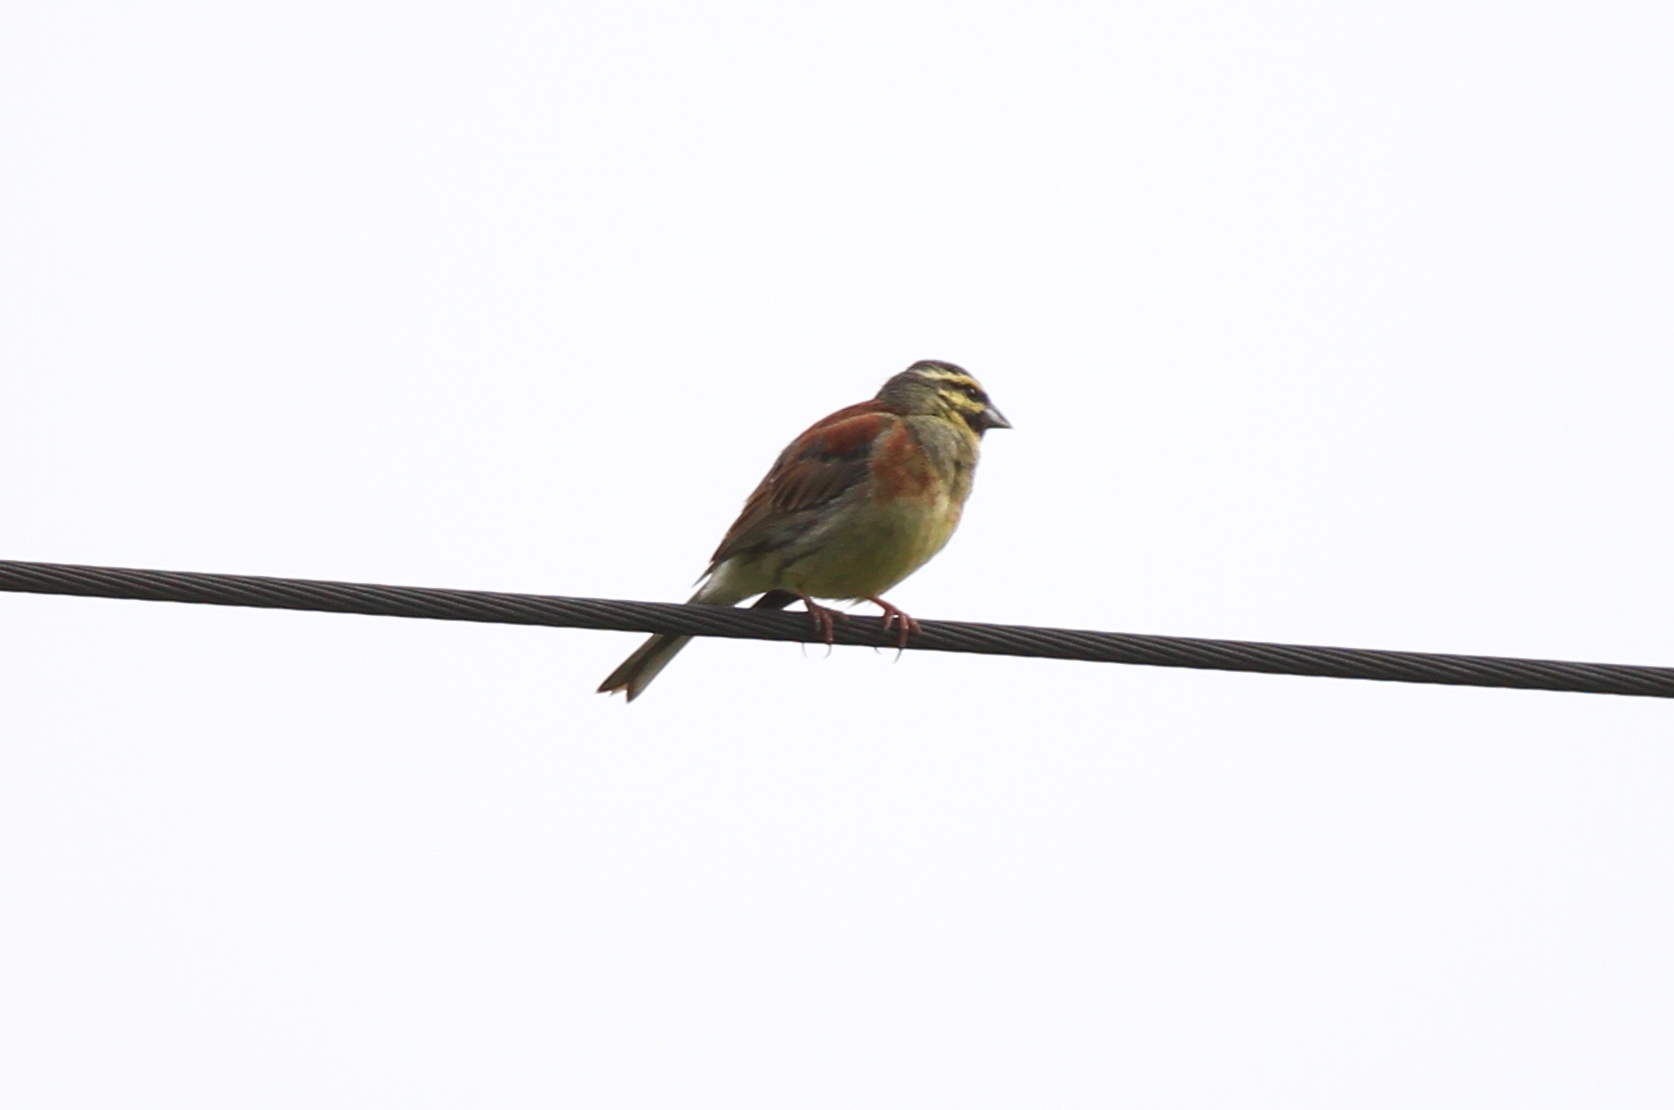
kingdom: Animalia
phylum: Chordata
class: Aves
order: Passeriformes
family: Emberizidae
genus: Emberiza
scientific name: Emberiza cirlus
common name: Cirl bunting
